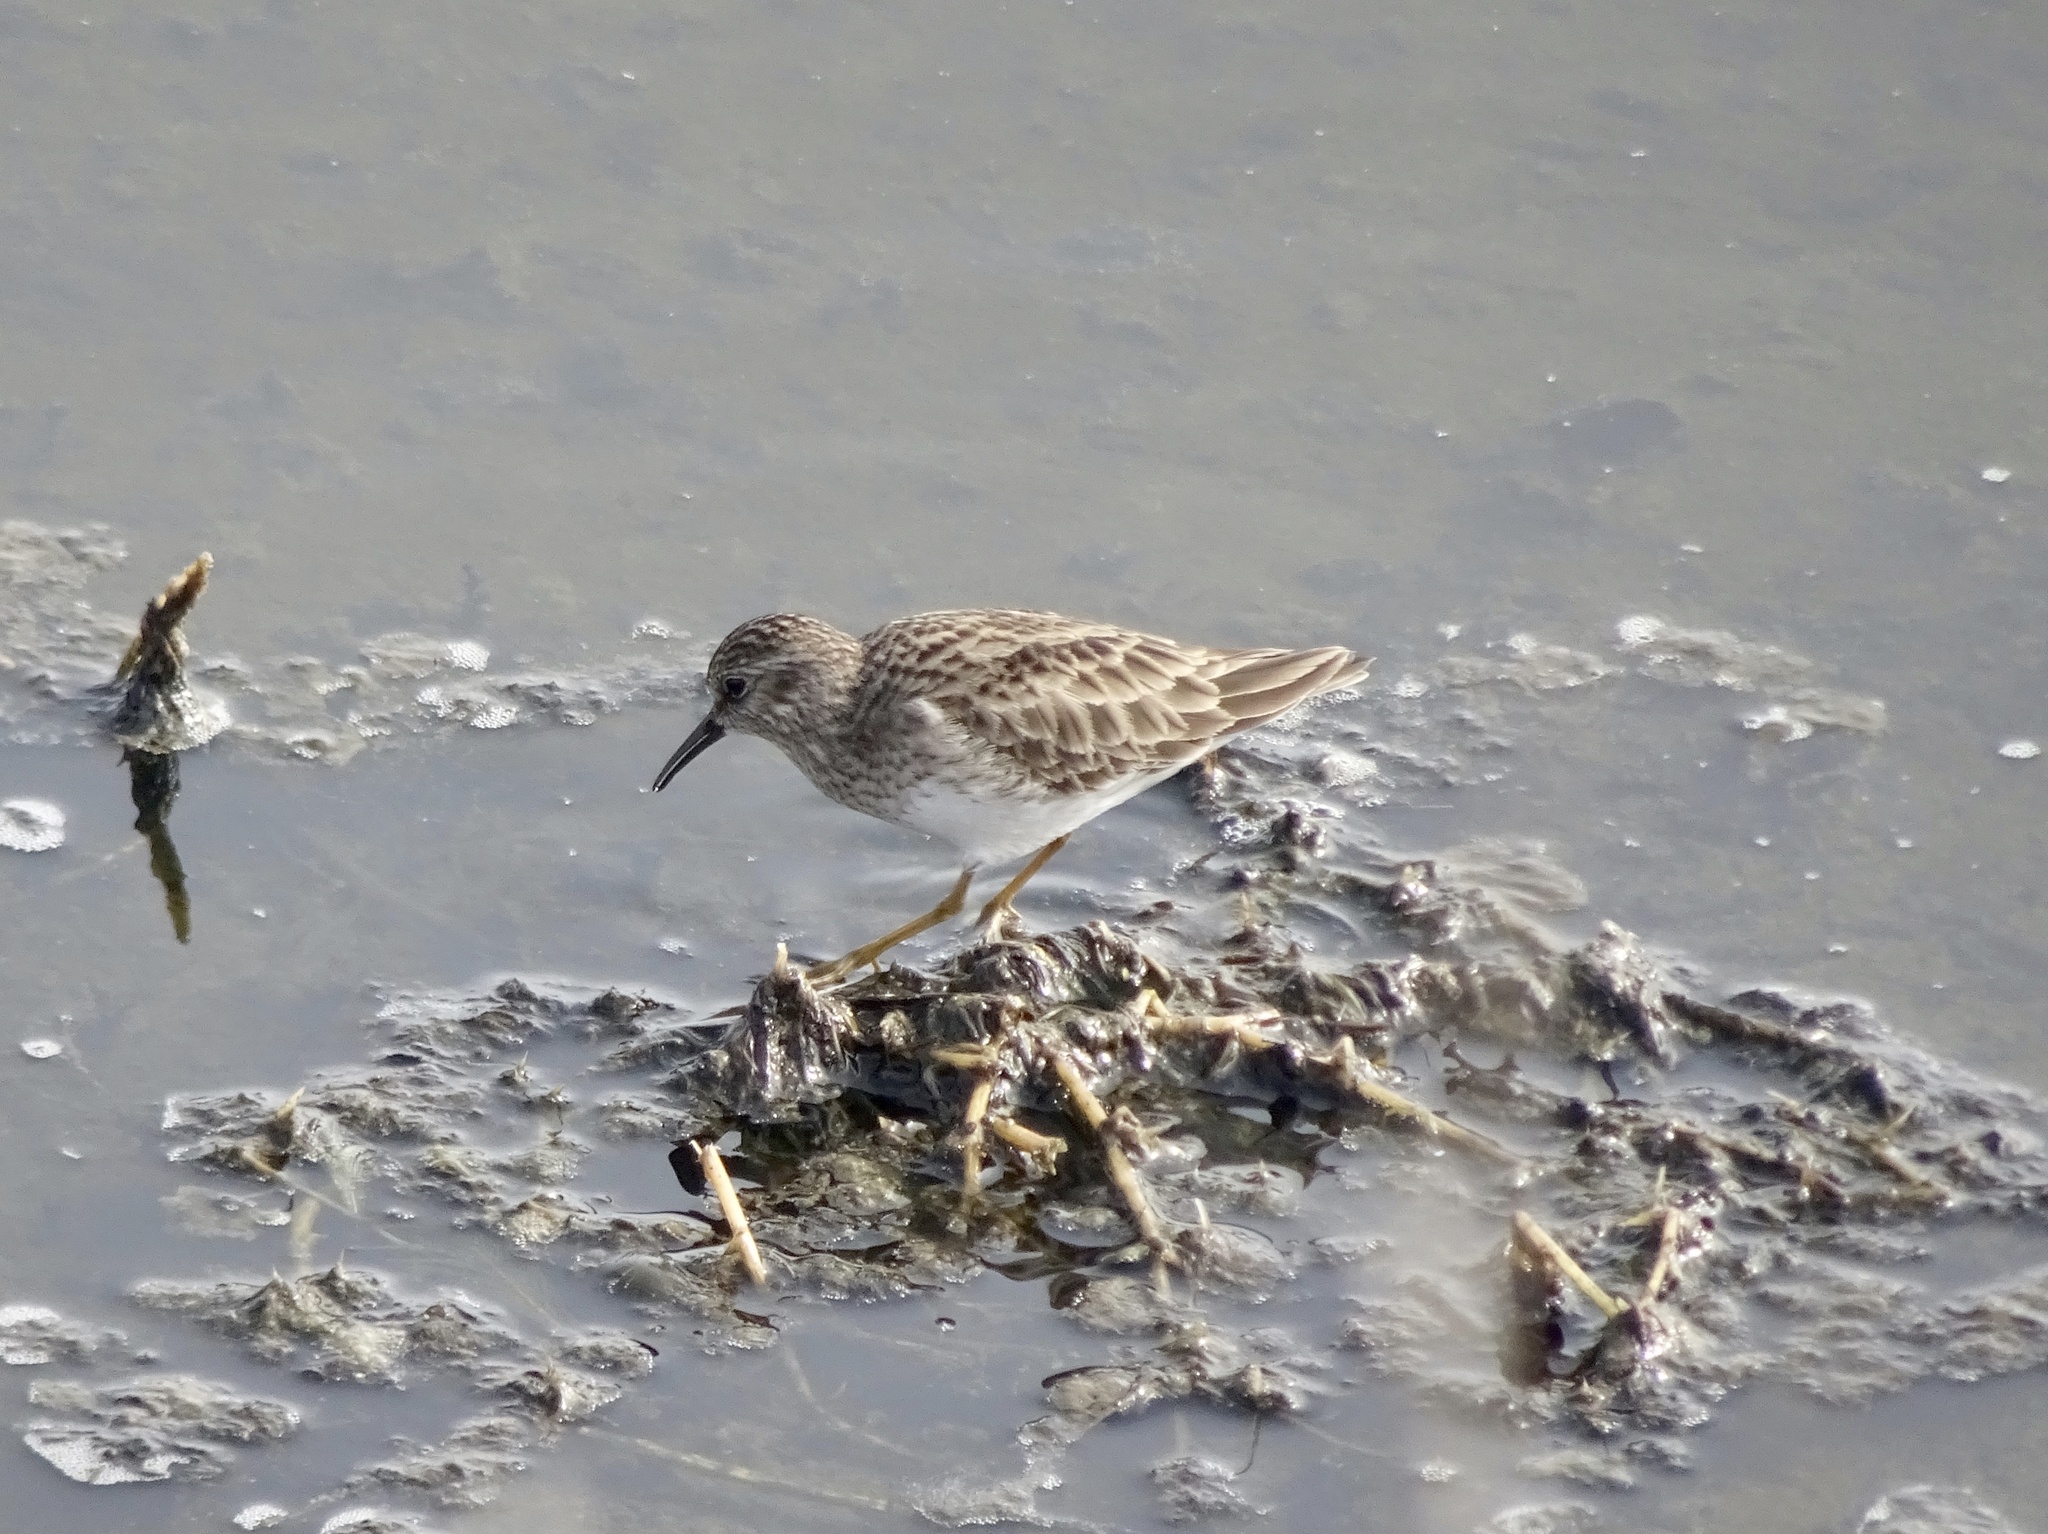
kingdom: Animalia
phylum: Chordata
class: Aves
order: Charadriiformes
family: Scolopacidae
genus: Calidris
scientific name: Calidris minutilla
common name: Least sandpiper
